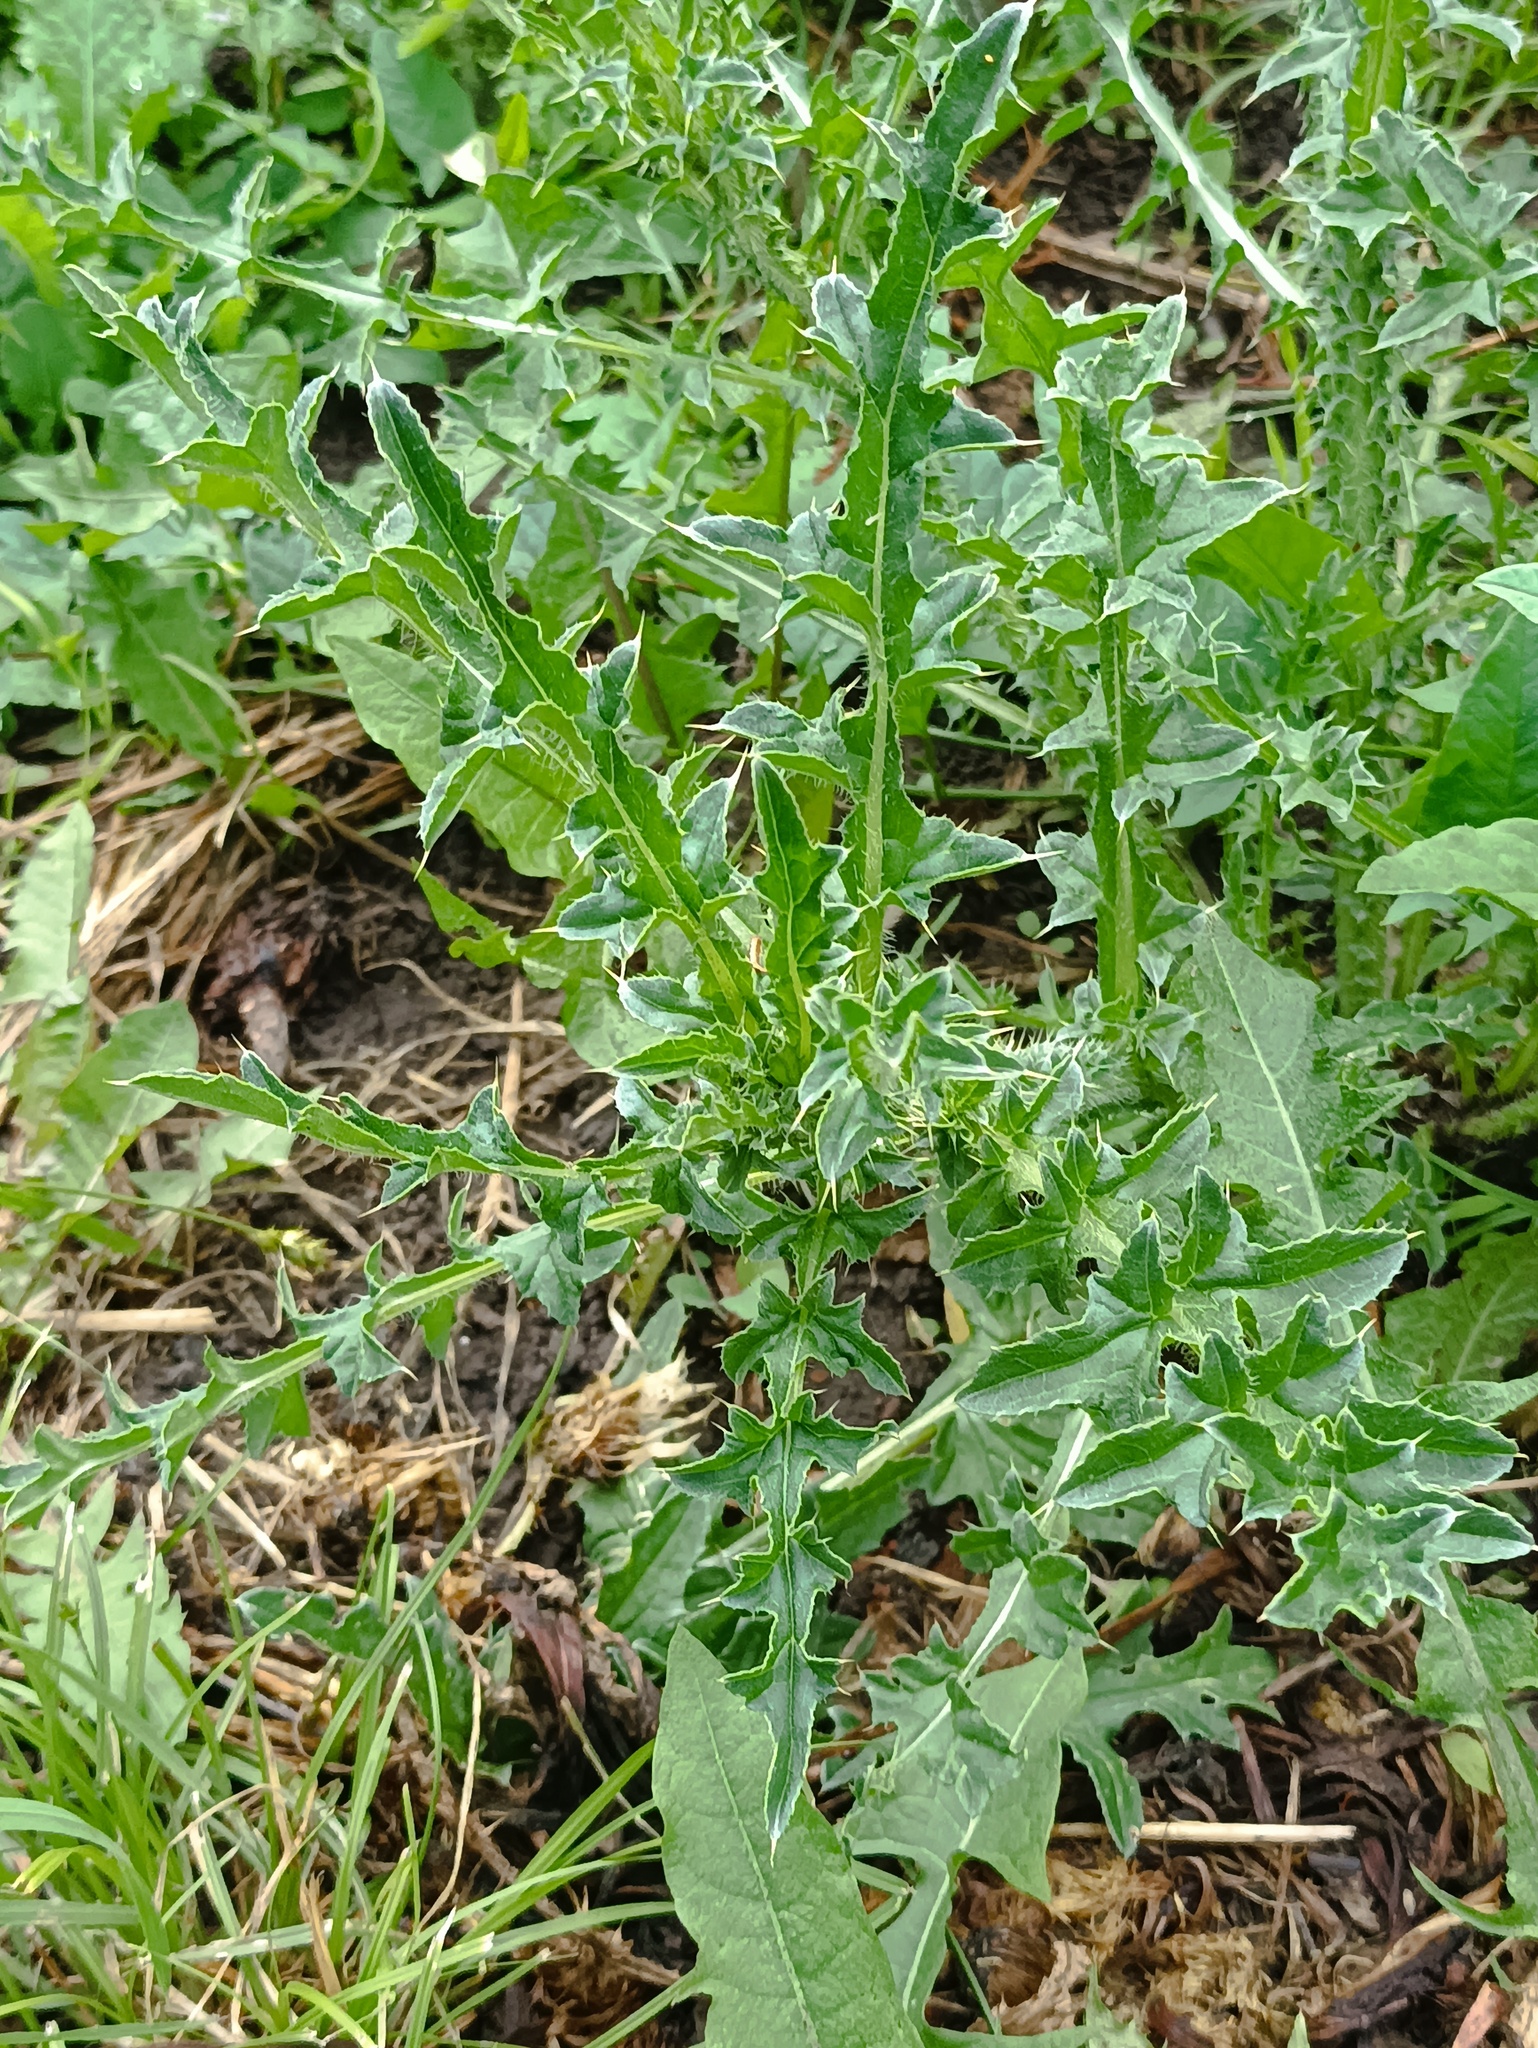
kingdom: Plantae
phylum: Tracheophyta
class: Magnoliopsida
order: Asterales
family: Asteraceae
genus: Carduus
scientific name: Carduus acanthoides
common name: Plumeless thistle
